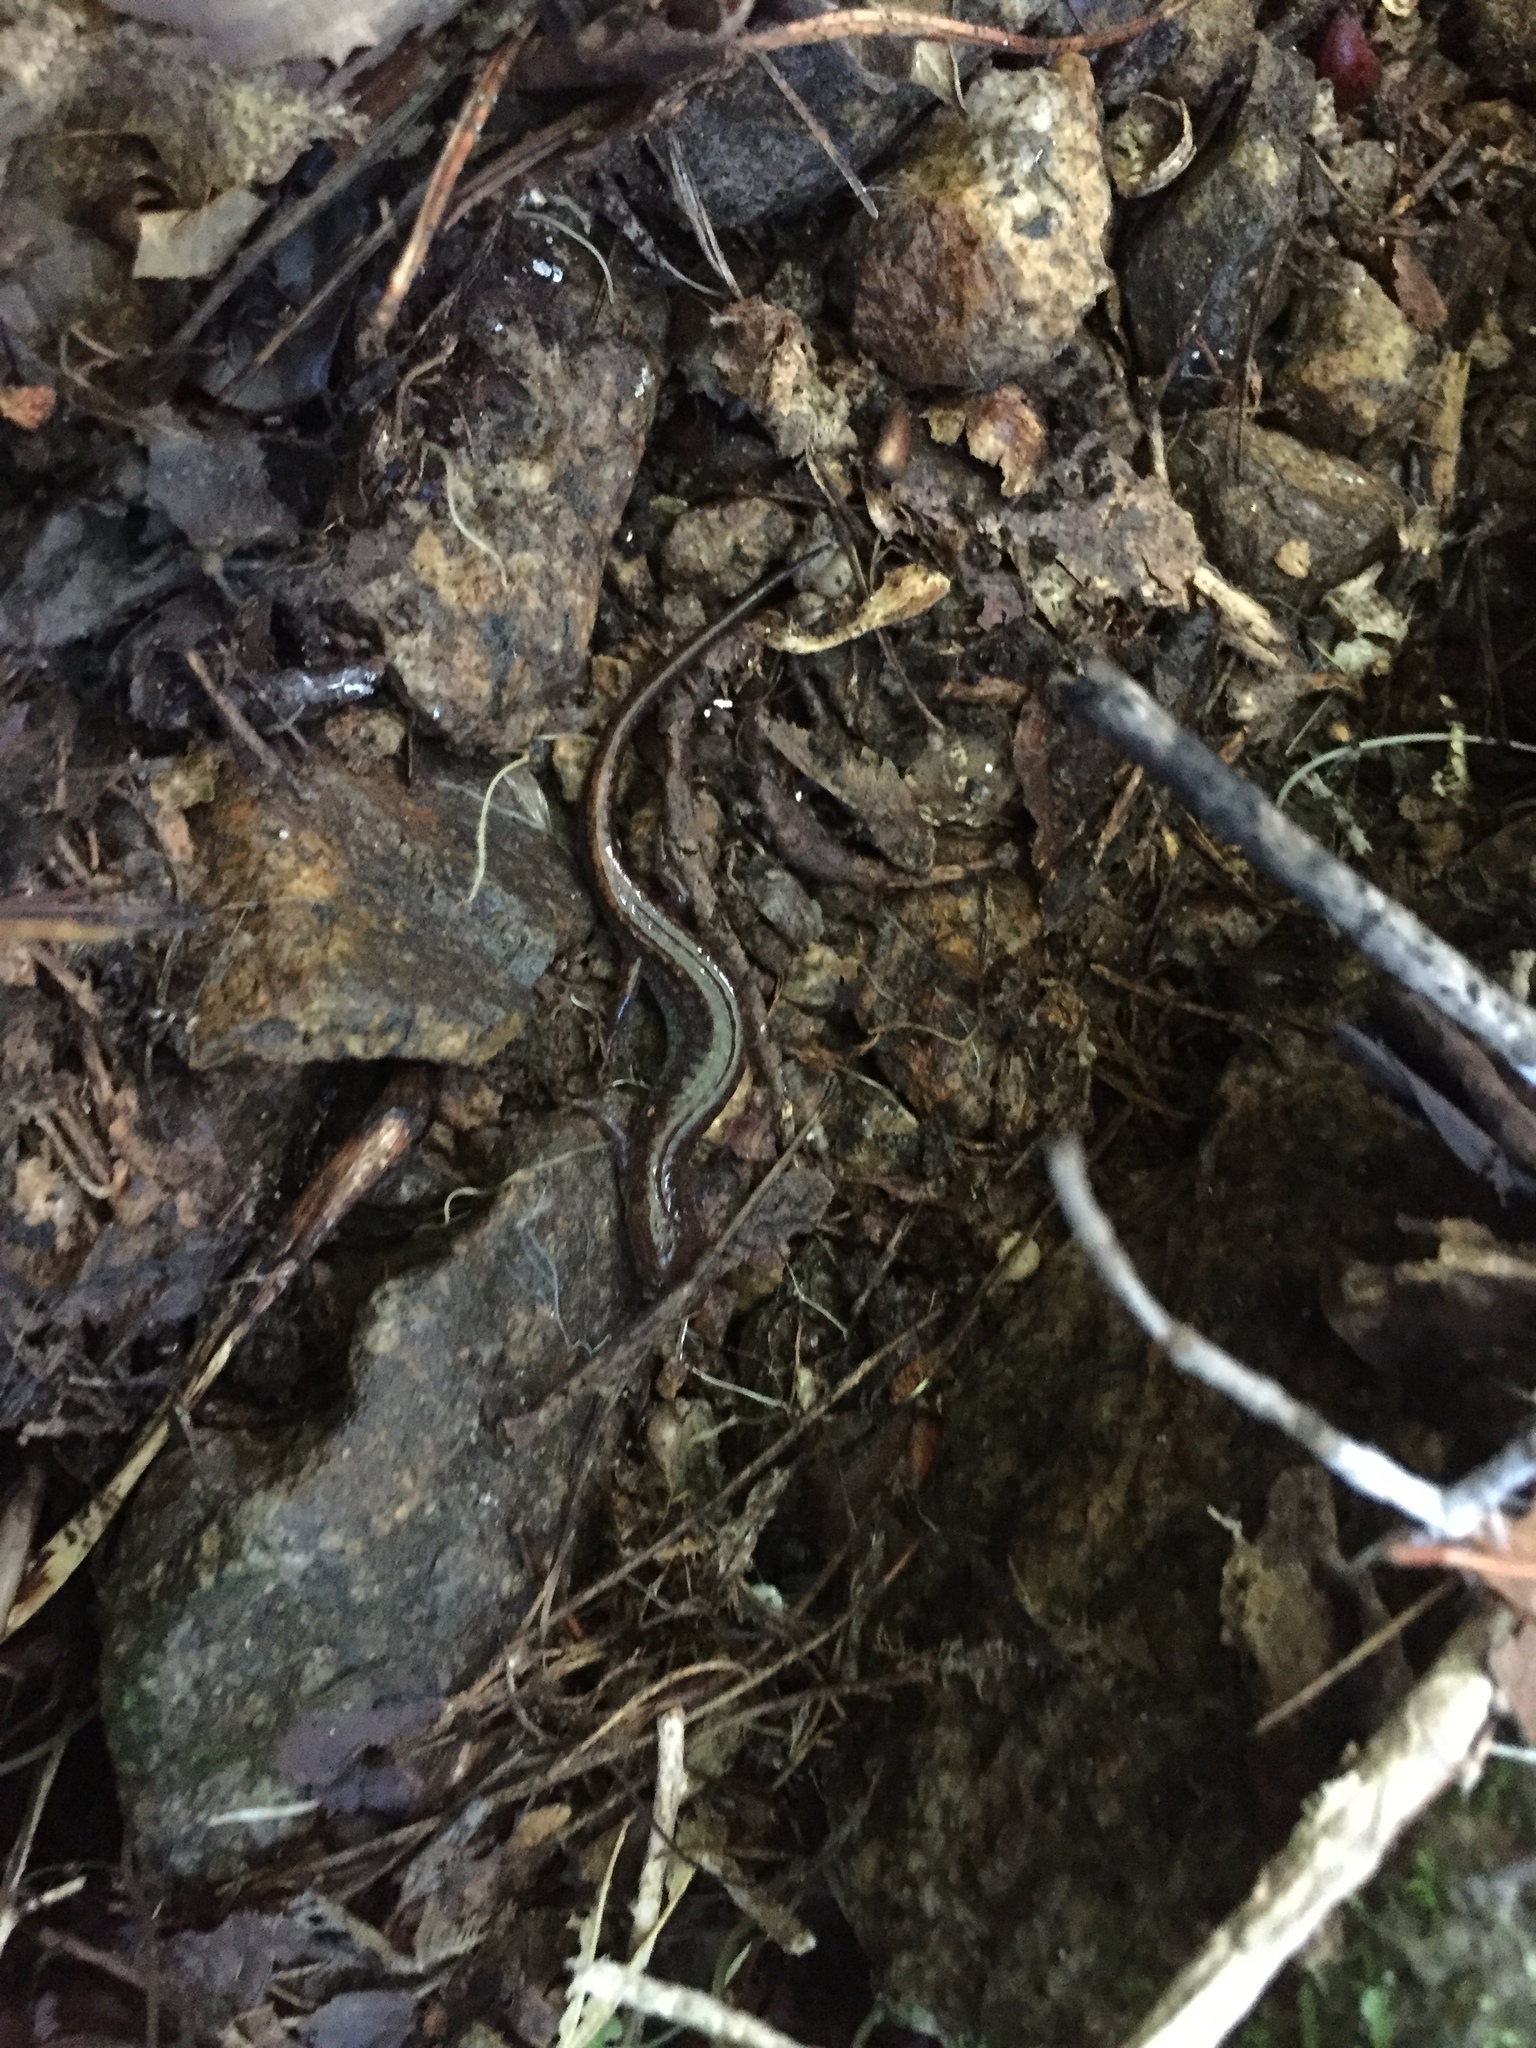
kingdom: Animalia
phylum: Chordata
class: Amphibia
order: Caudata
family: Plethodontidae
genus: Karsenia
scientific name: Karsenia koreana
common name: Korean crevice salamander
